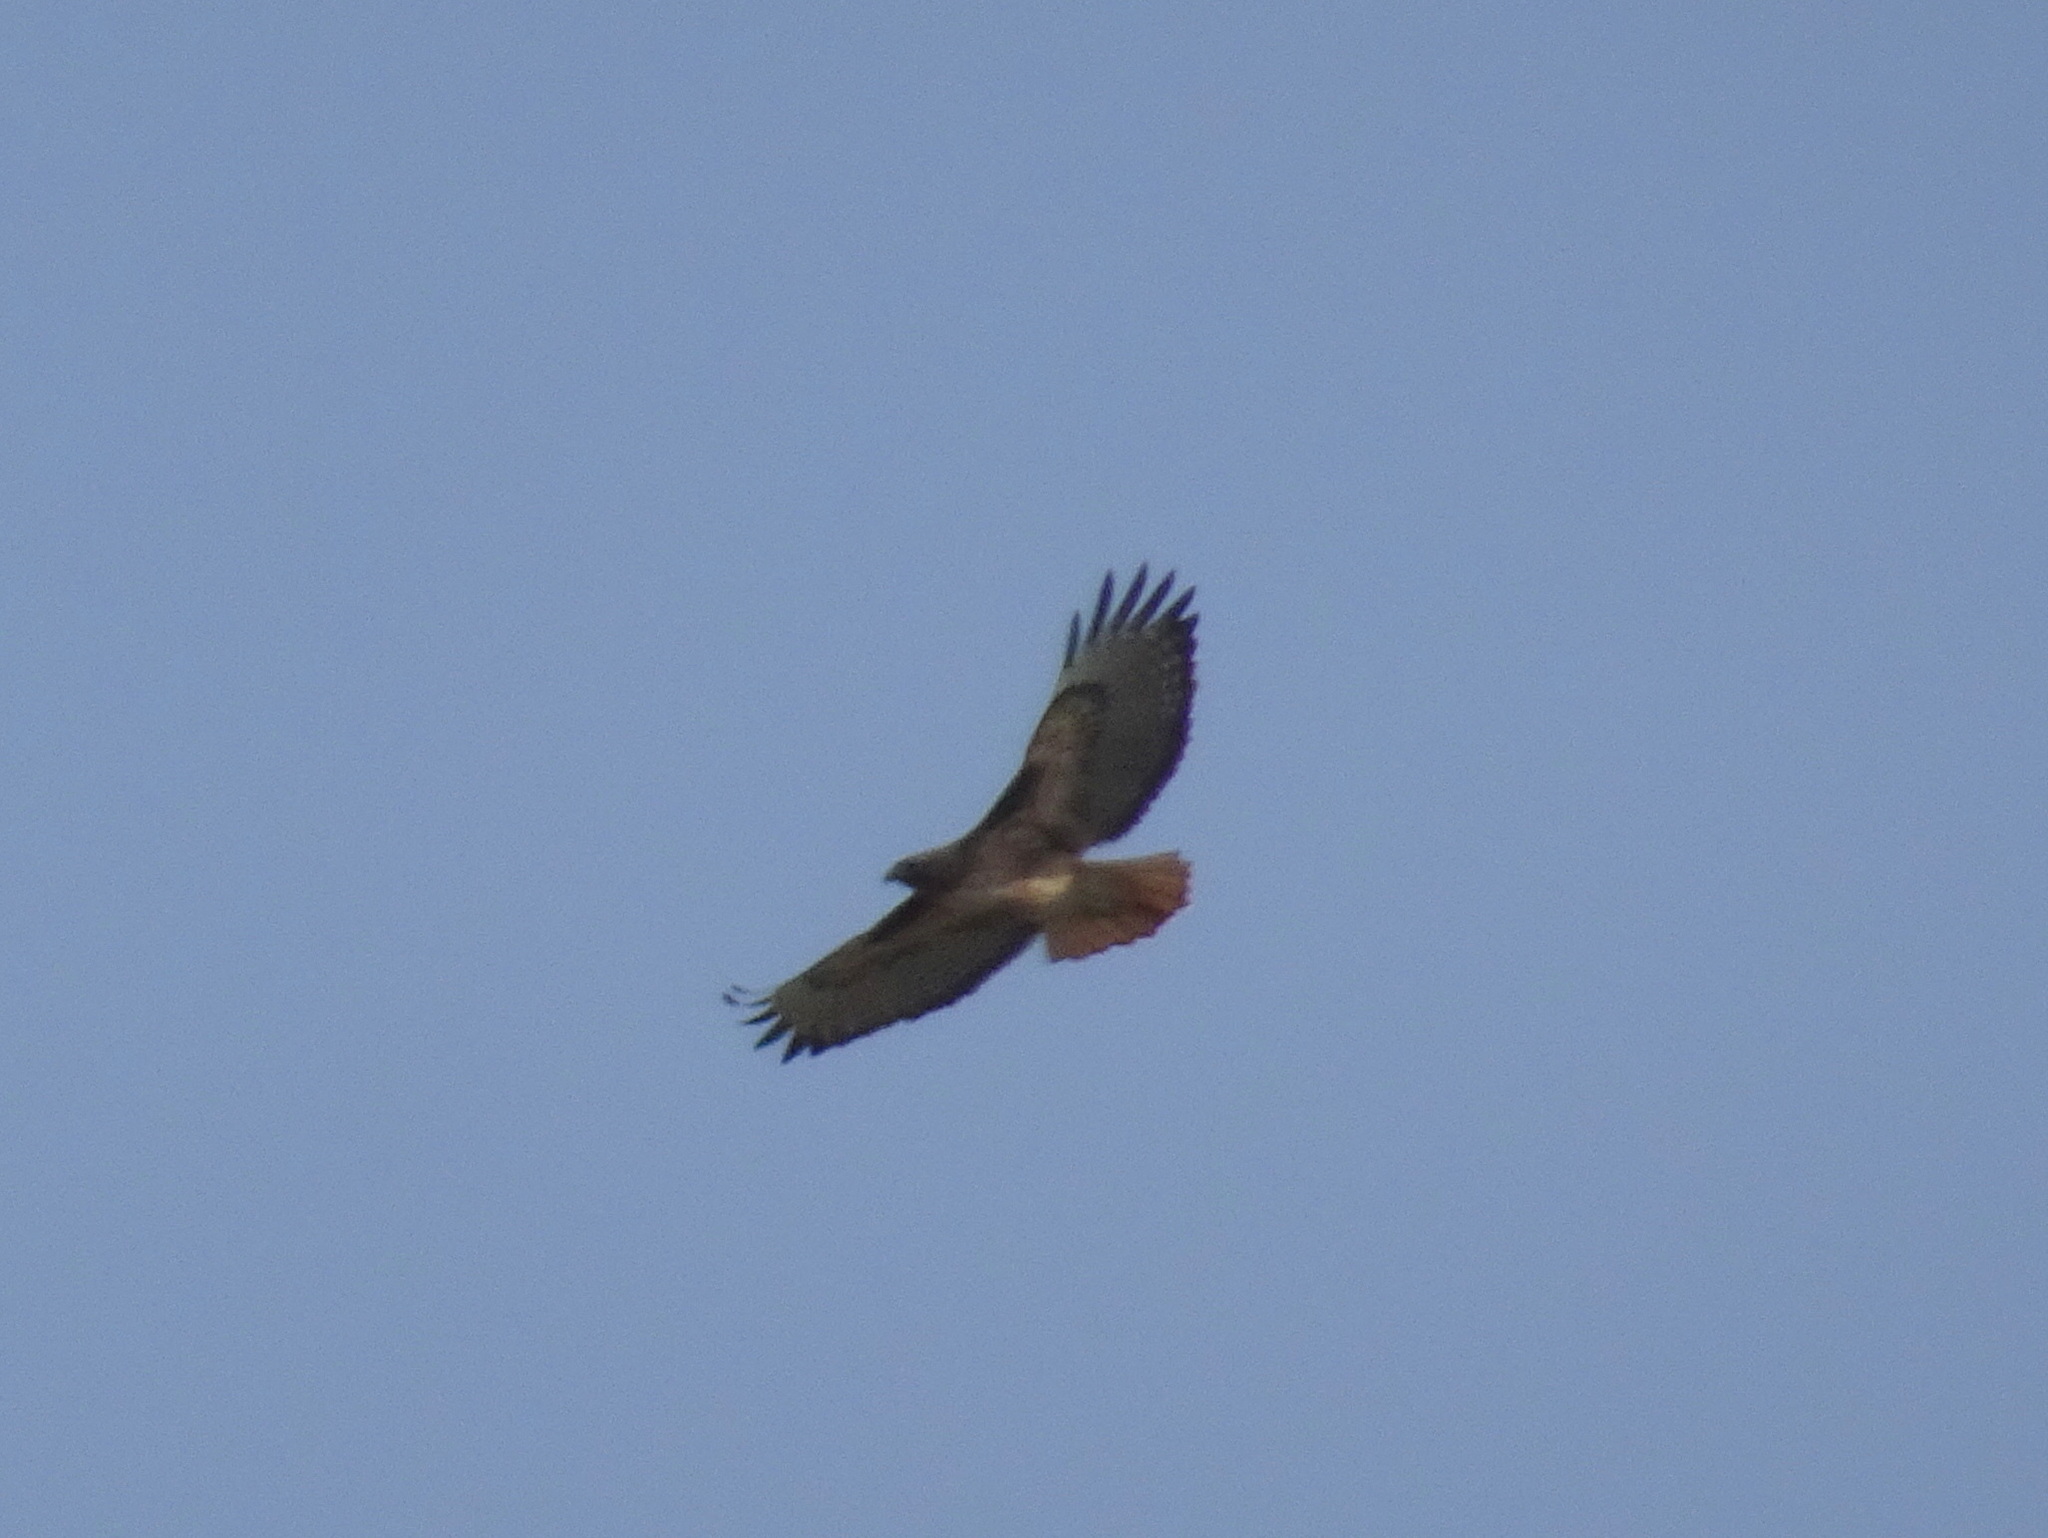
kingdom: Animalia
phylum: Chordata
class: Aves
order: Accipitriformes
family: Accipitridae
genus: Buteo
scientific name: Buteo jamaicensis
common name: Red-tailed hawk
